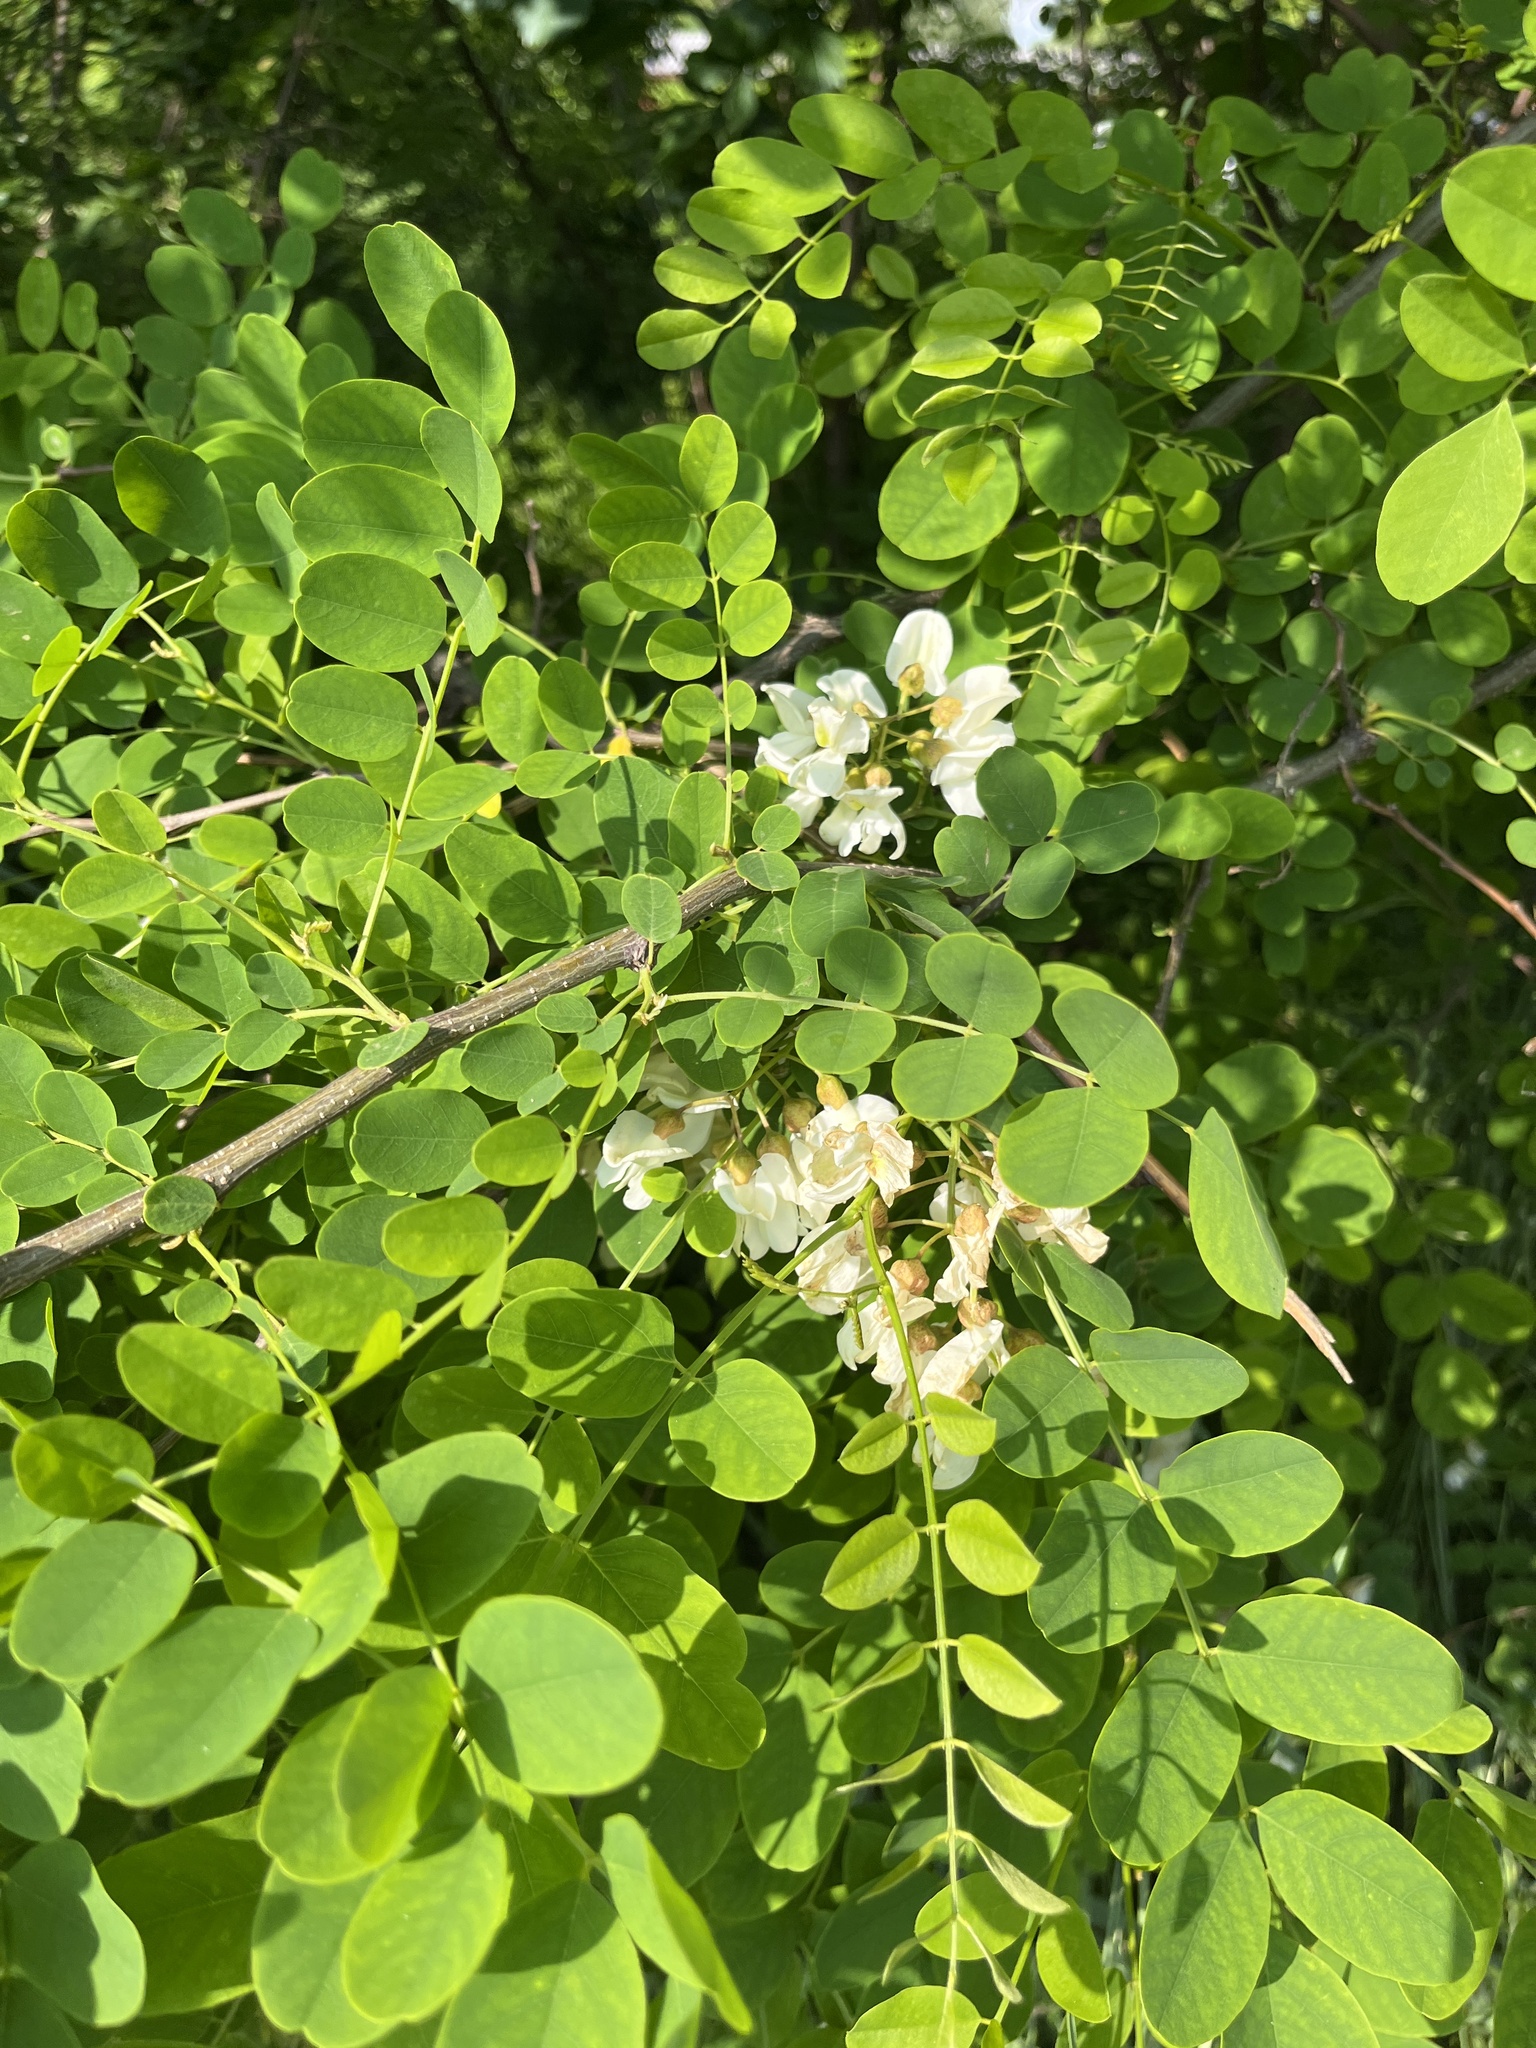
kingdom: Plantae
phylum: Tracheophyta
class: Magnoliopsida
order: Fabales
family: Fabaceae
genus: Robinia
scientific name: Robinia pseudoacacia
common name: Black locust
